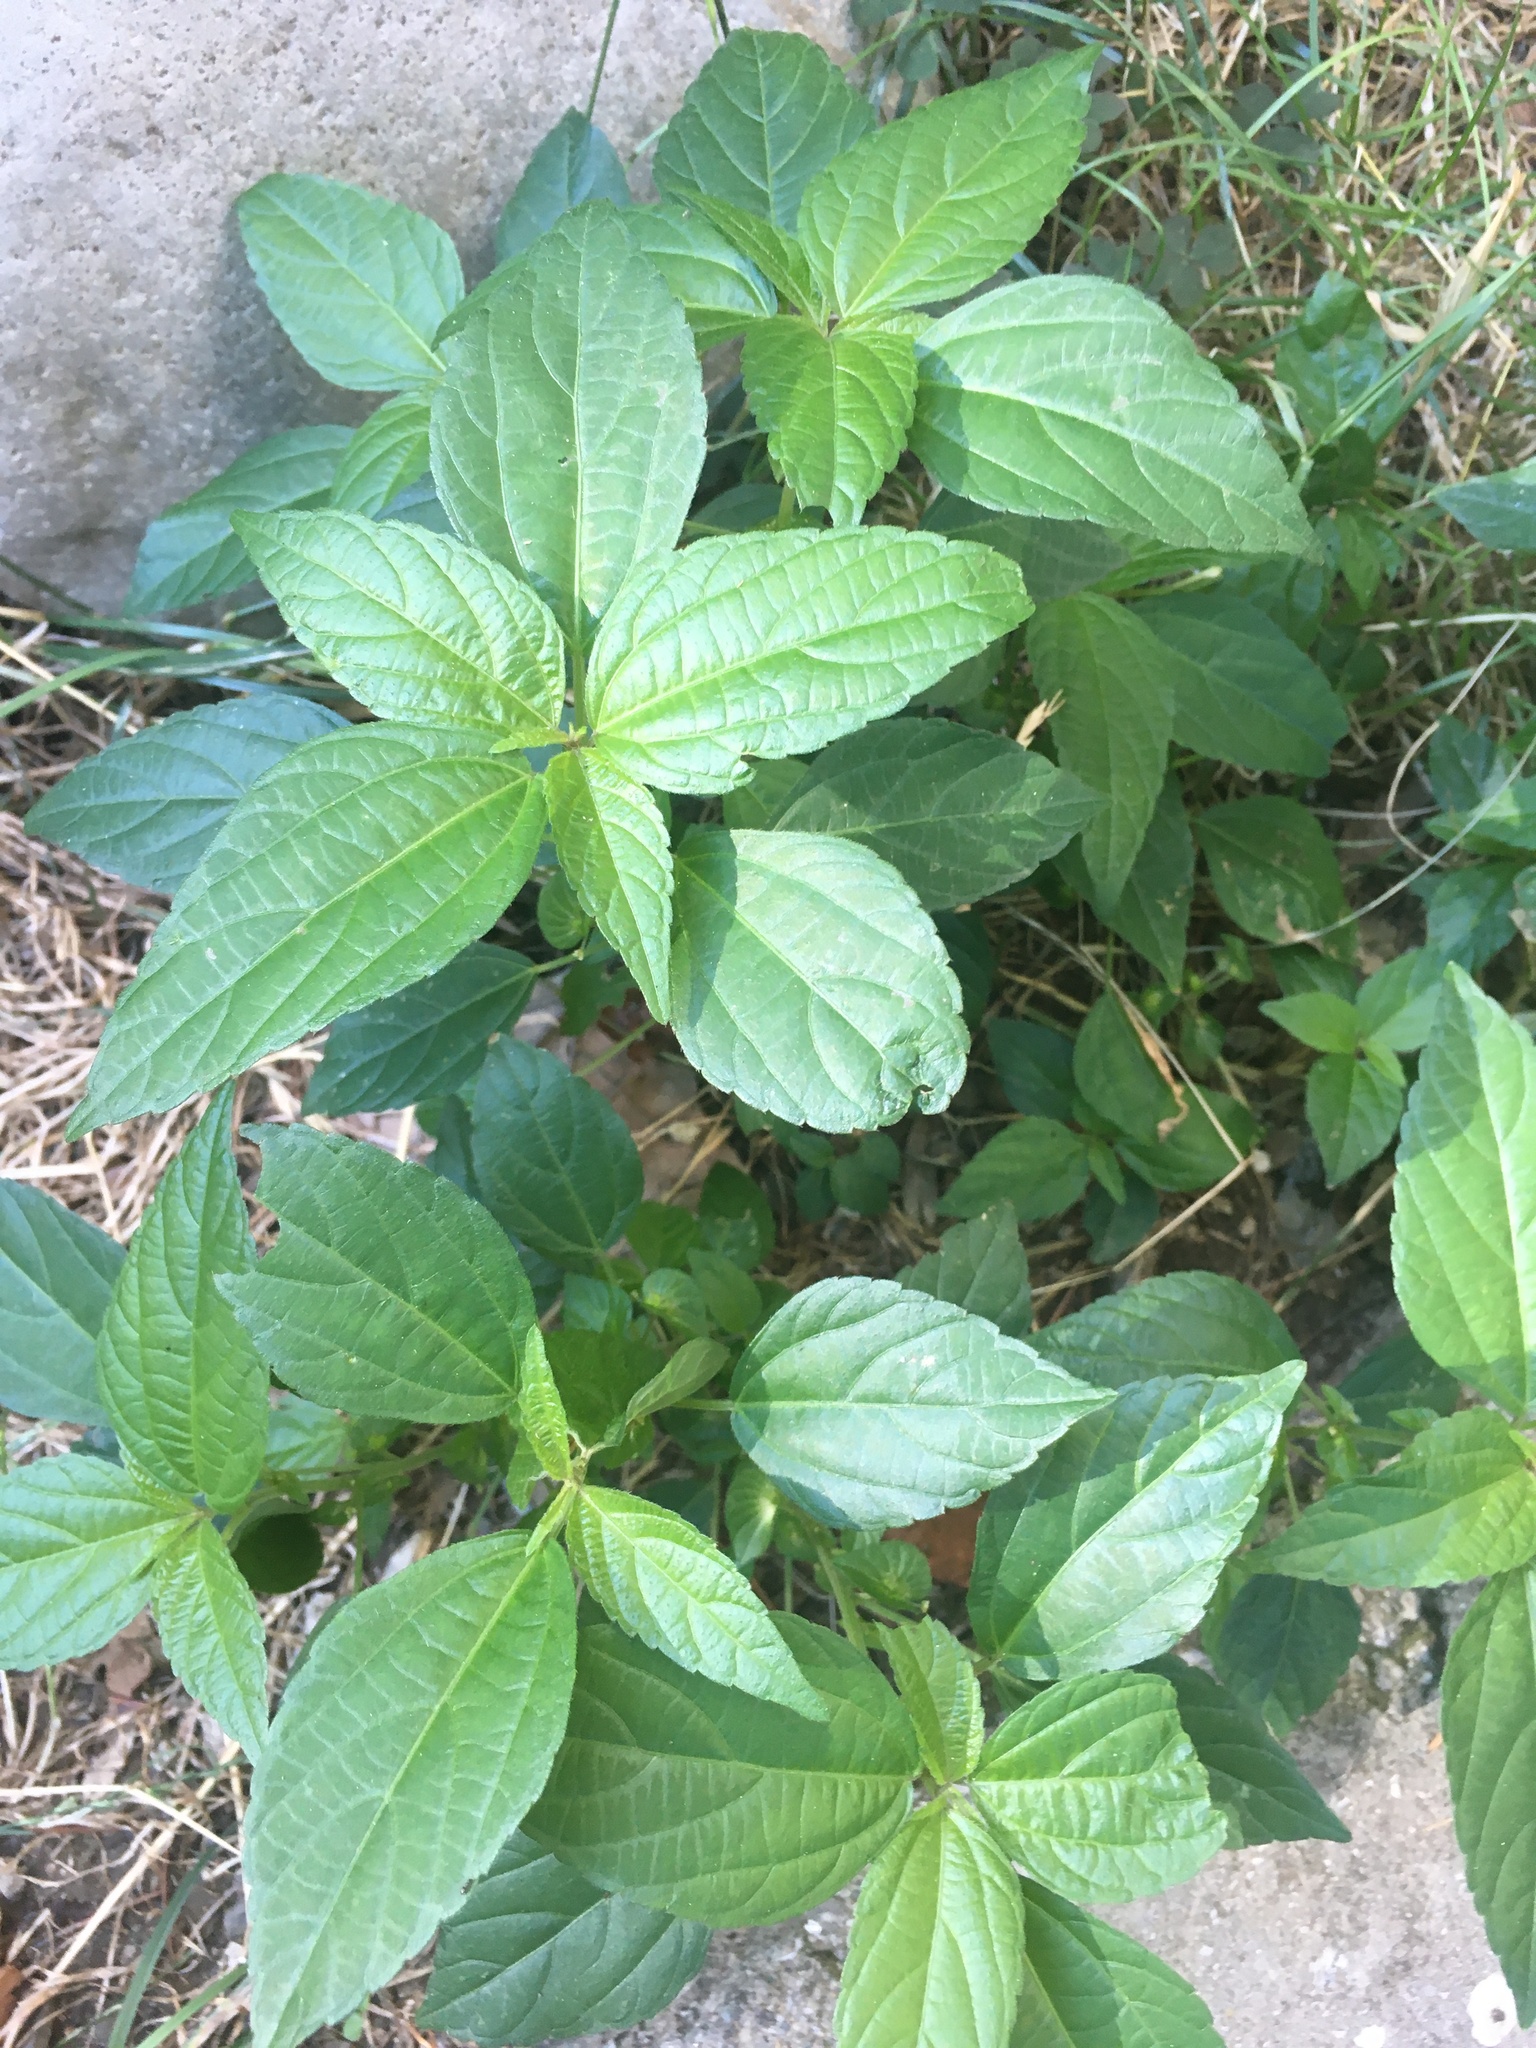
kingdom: Plantae
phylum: Tracheophyta
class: Magnoliopsida
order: Malpighiales
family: Euphorbiaceae
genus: Acalypha
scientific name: Acalypha australis
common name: Asian copperleaf
